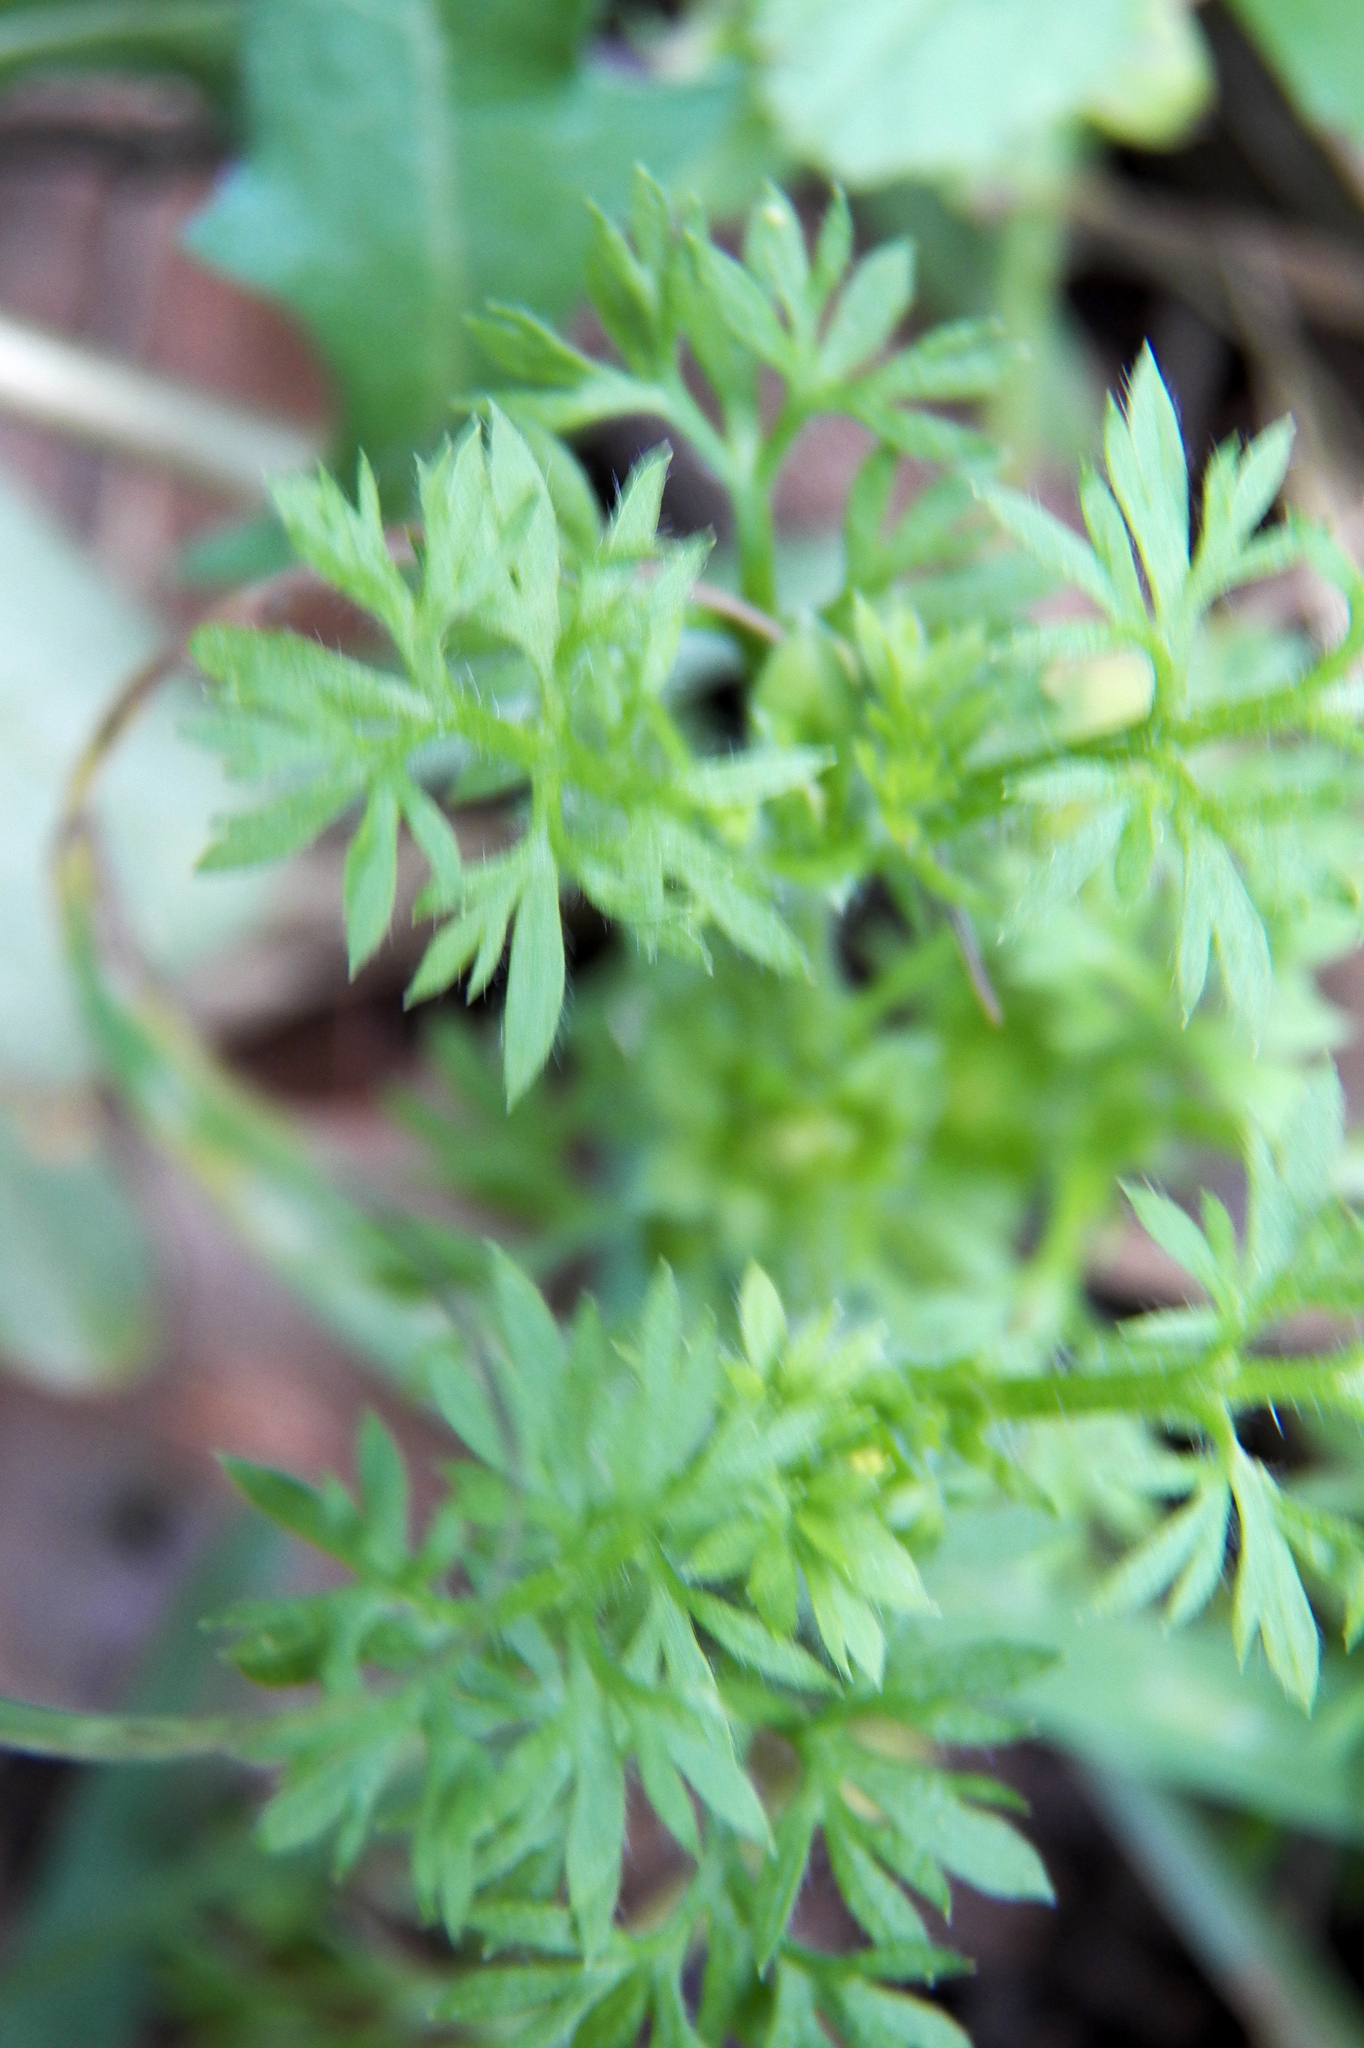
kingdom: Plantae
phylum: Tracheophyta
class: Magnoliopsida
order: Asterales
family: Asteraceae
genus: Soliva
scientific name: Soliva sessilis
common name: Field burrweed
